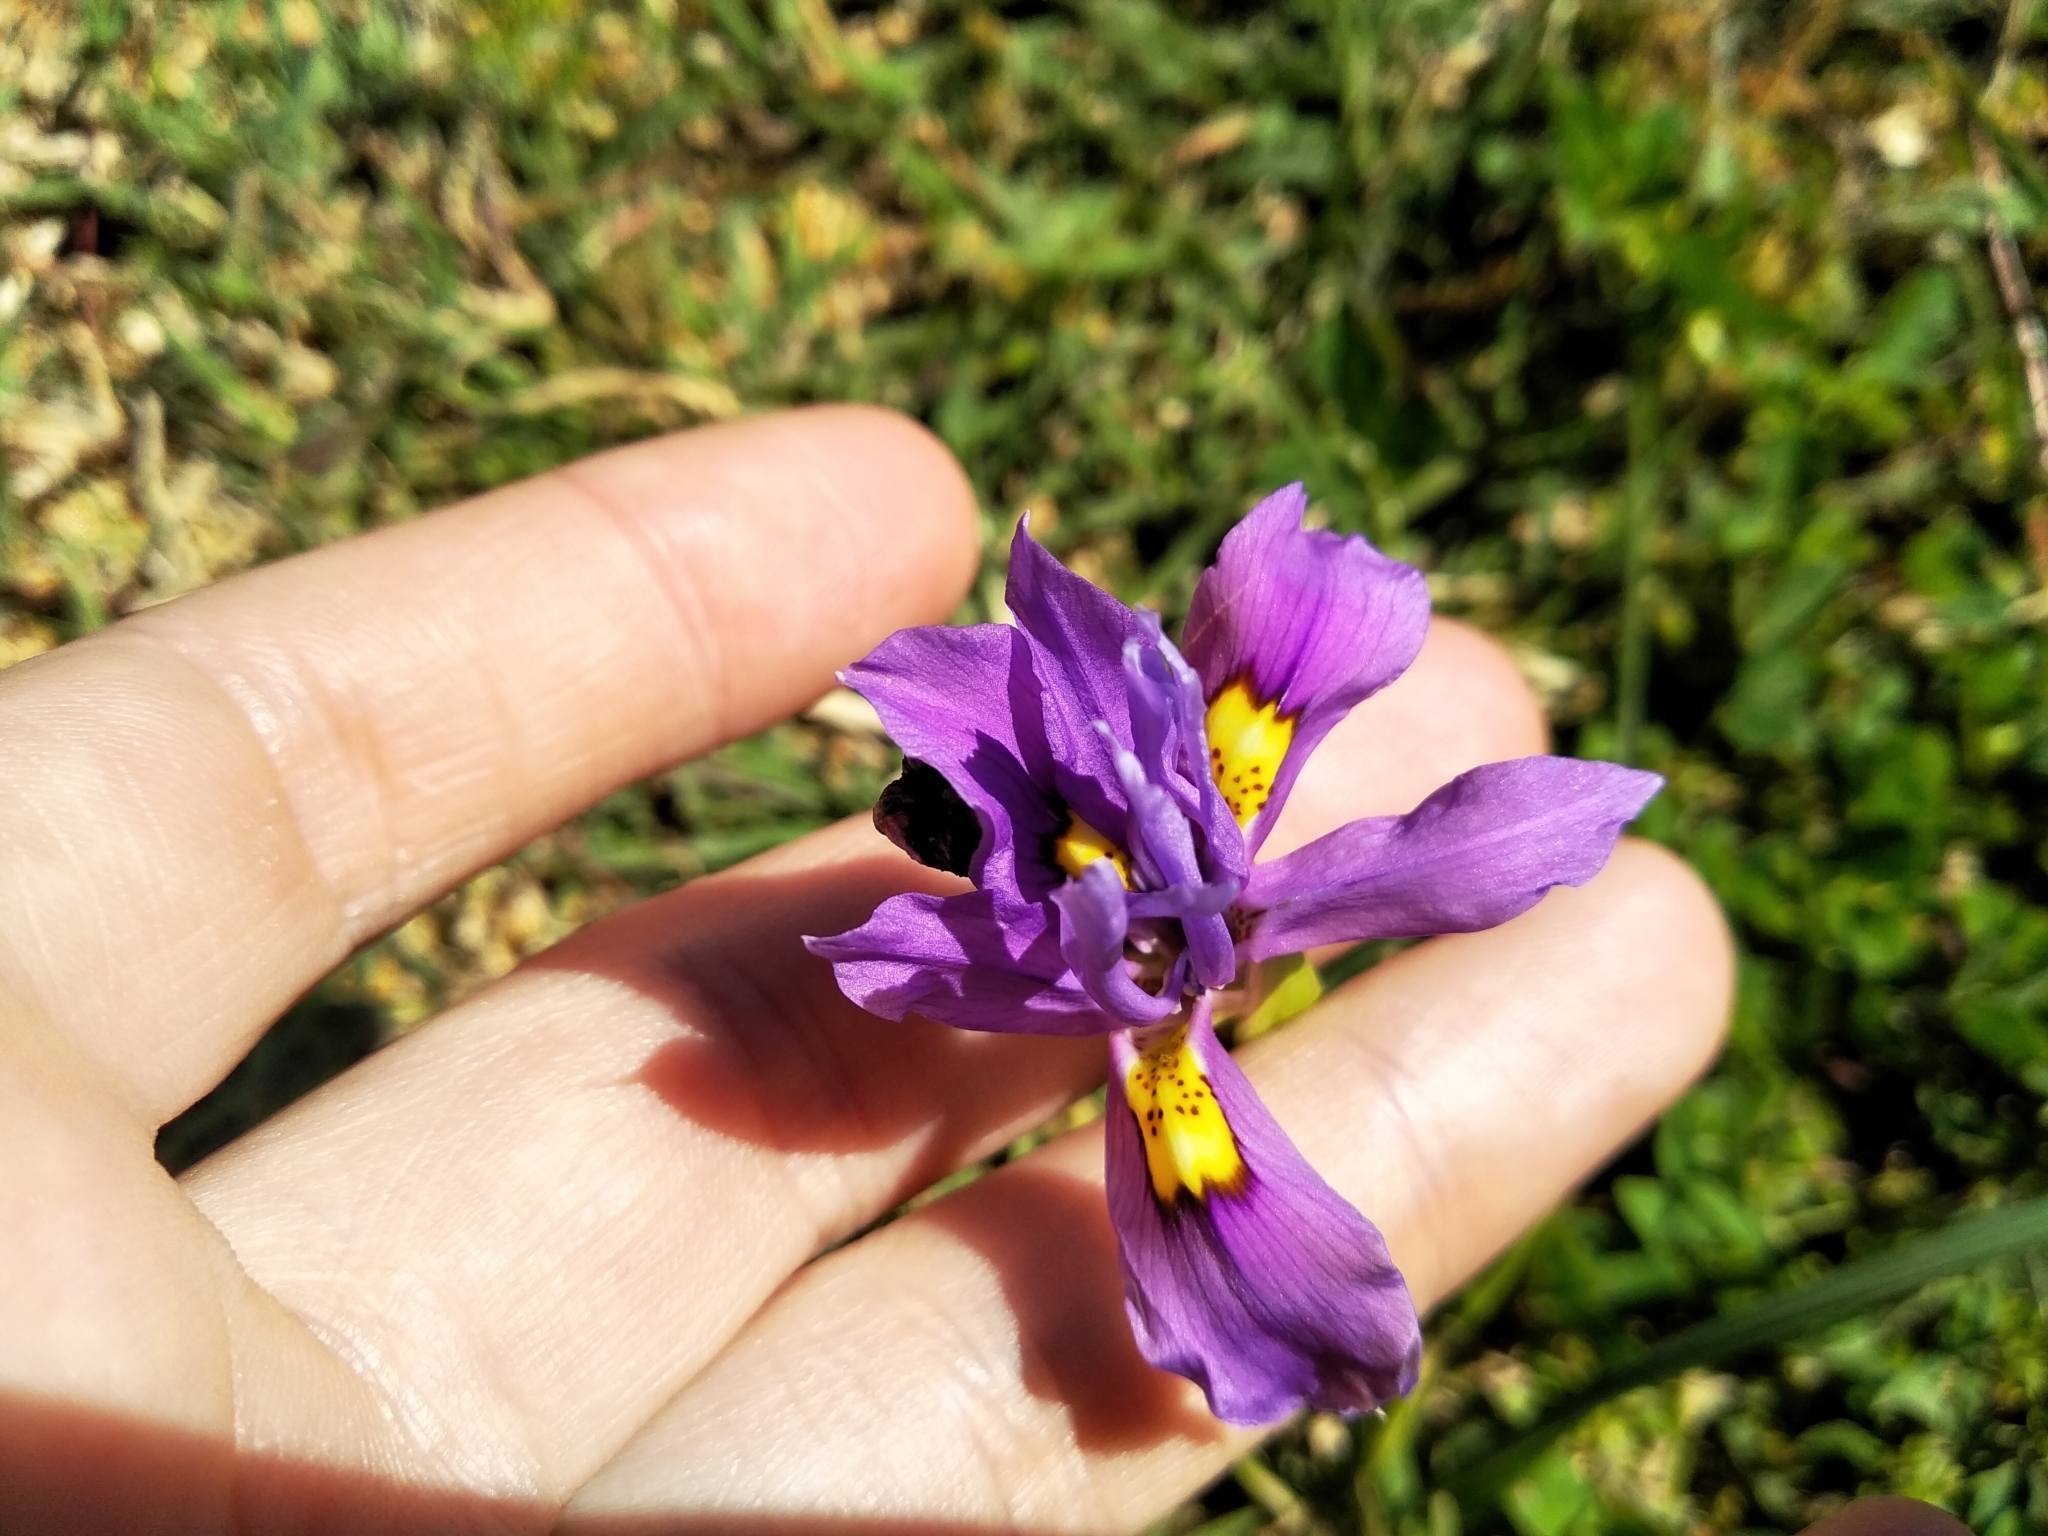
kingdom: Plantae
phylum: Tracheophyta
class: Liliopsida
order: Asparagales
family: Iridaceae
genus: Moraea
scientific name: Moraea fugax
